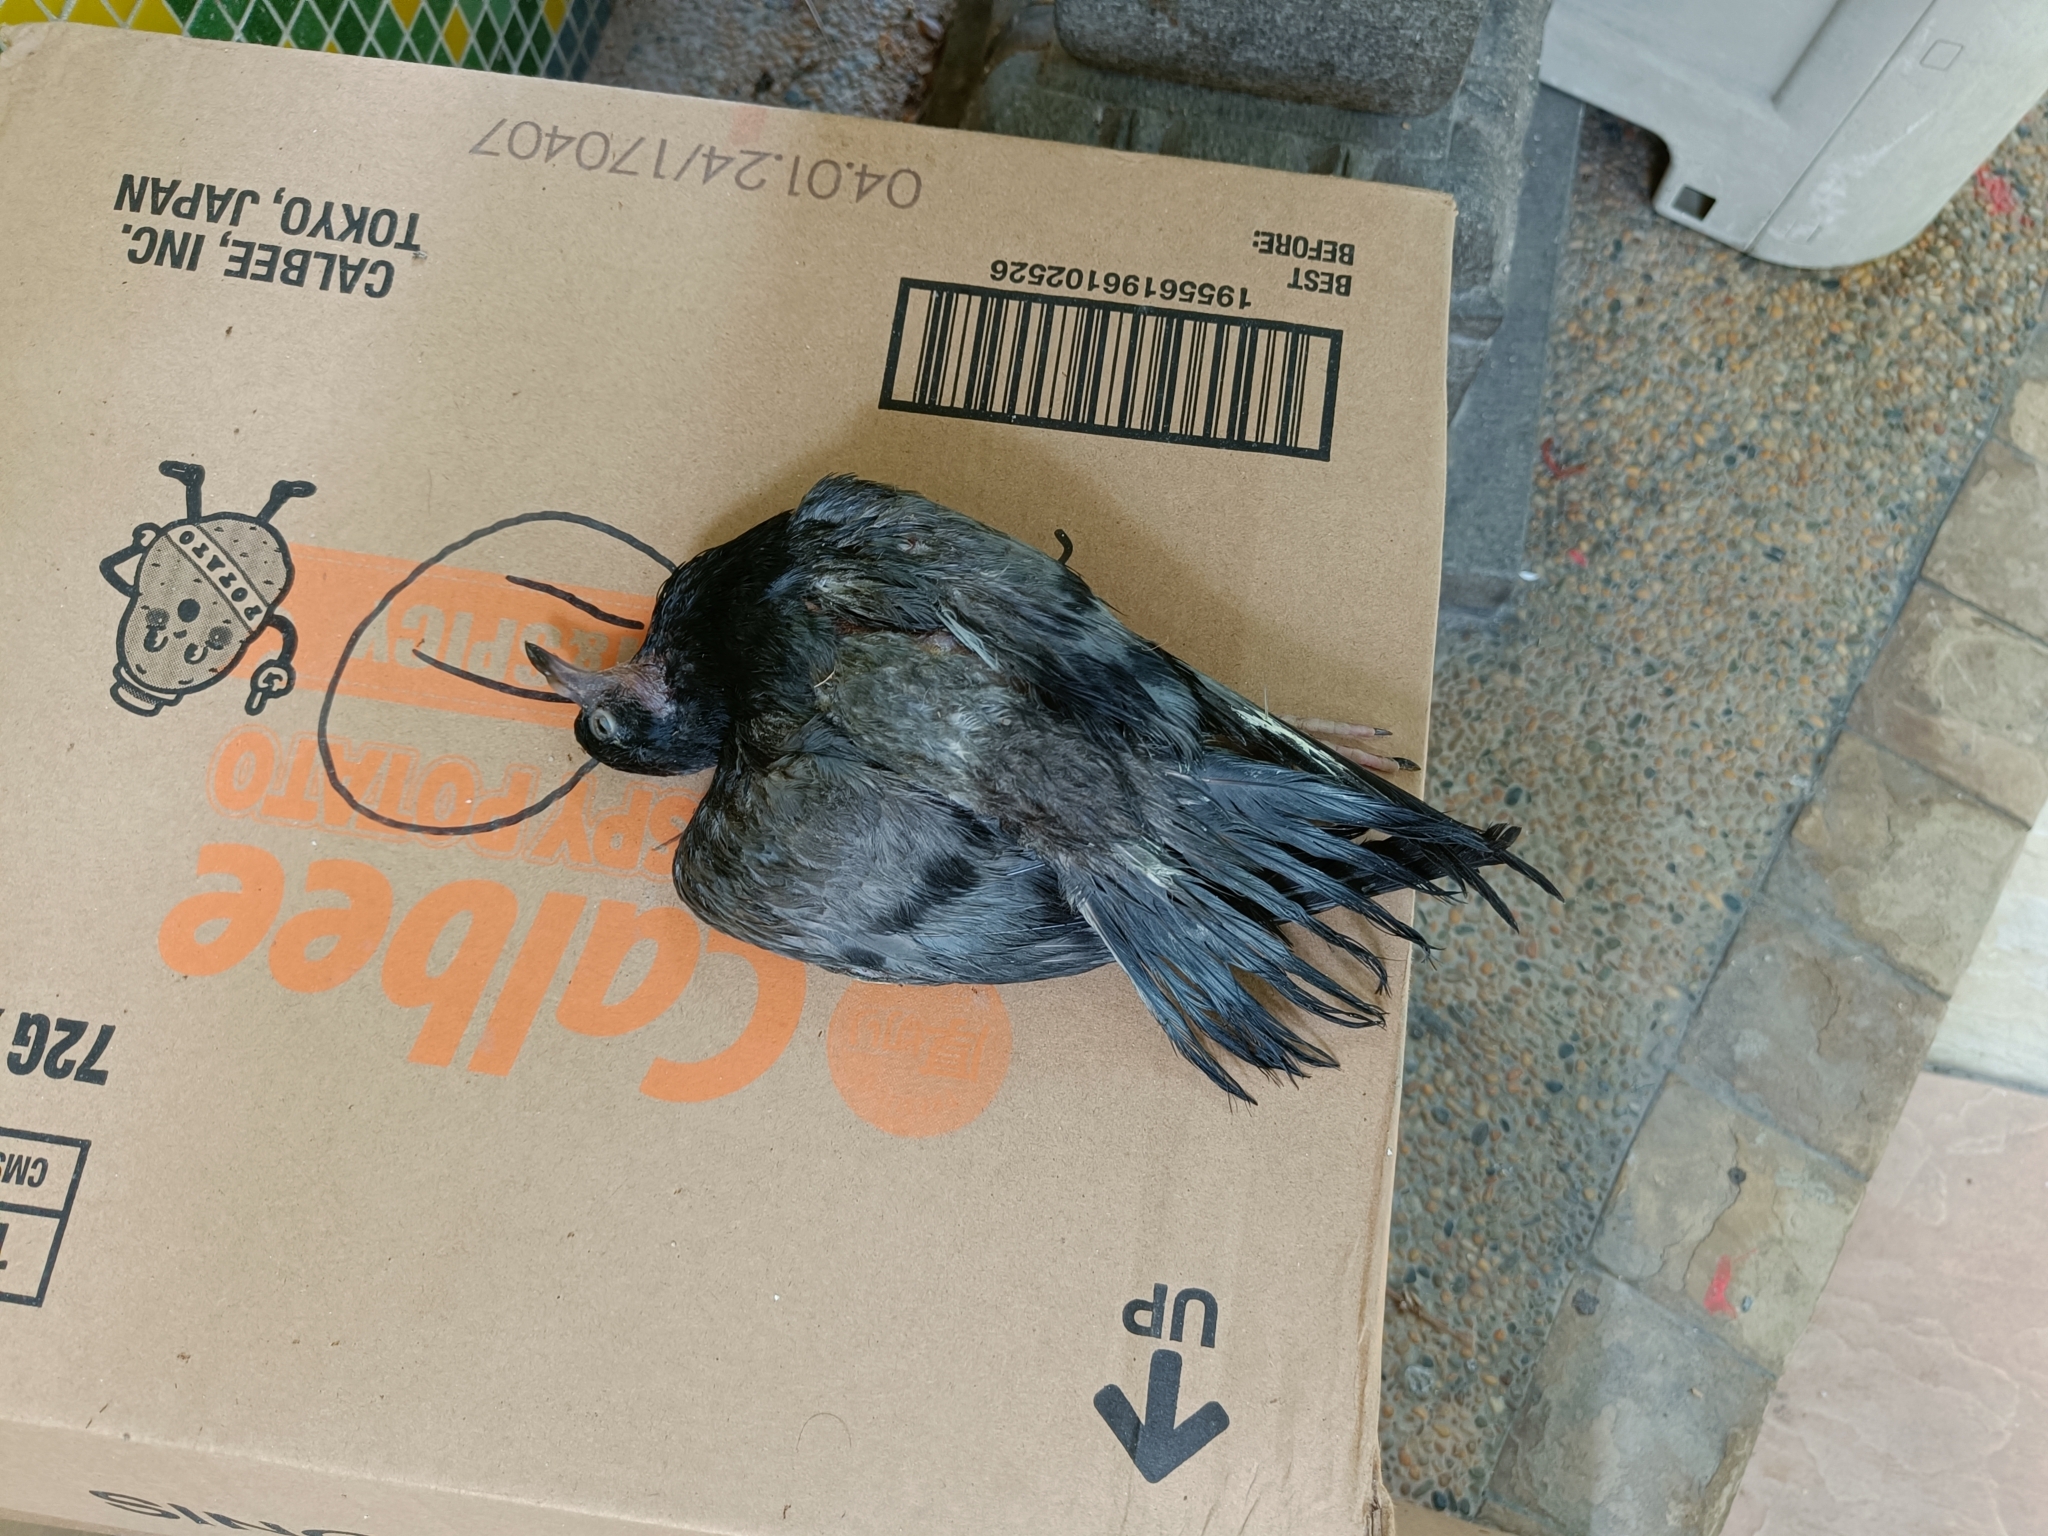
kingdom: Animalia
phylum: Chordata
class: Aves
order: Columbiformes
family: Columbidae
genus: Columba
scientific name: Columba livia
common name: Rock pigeon
